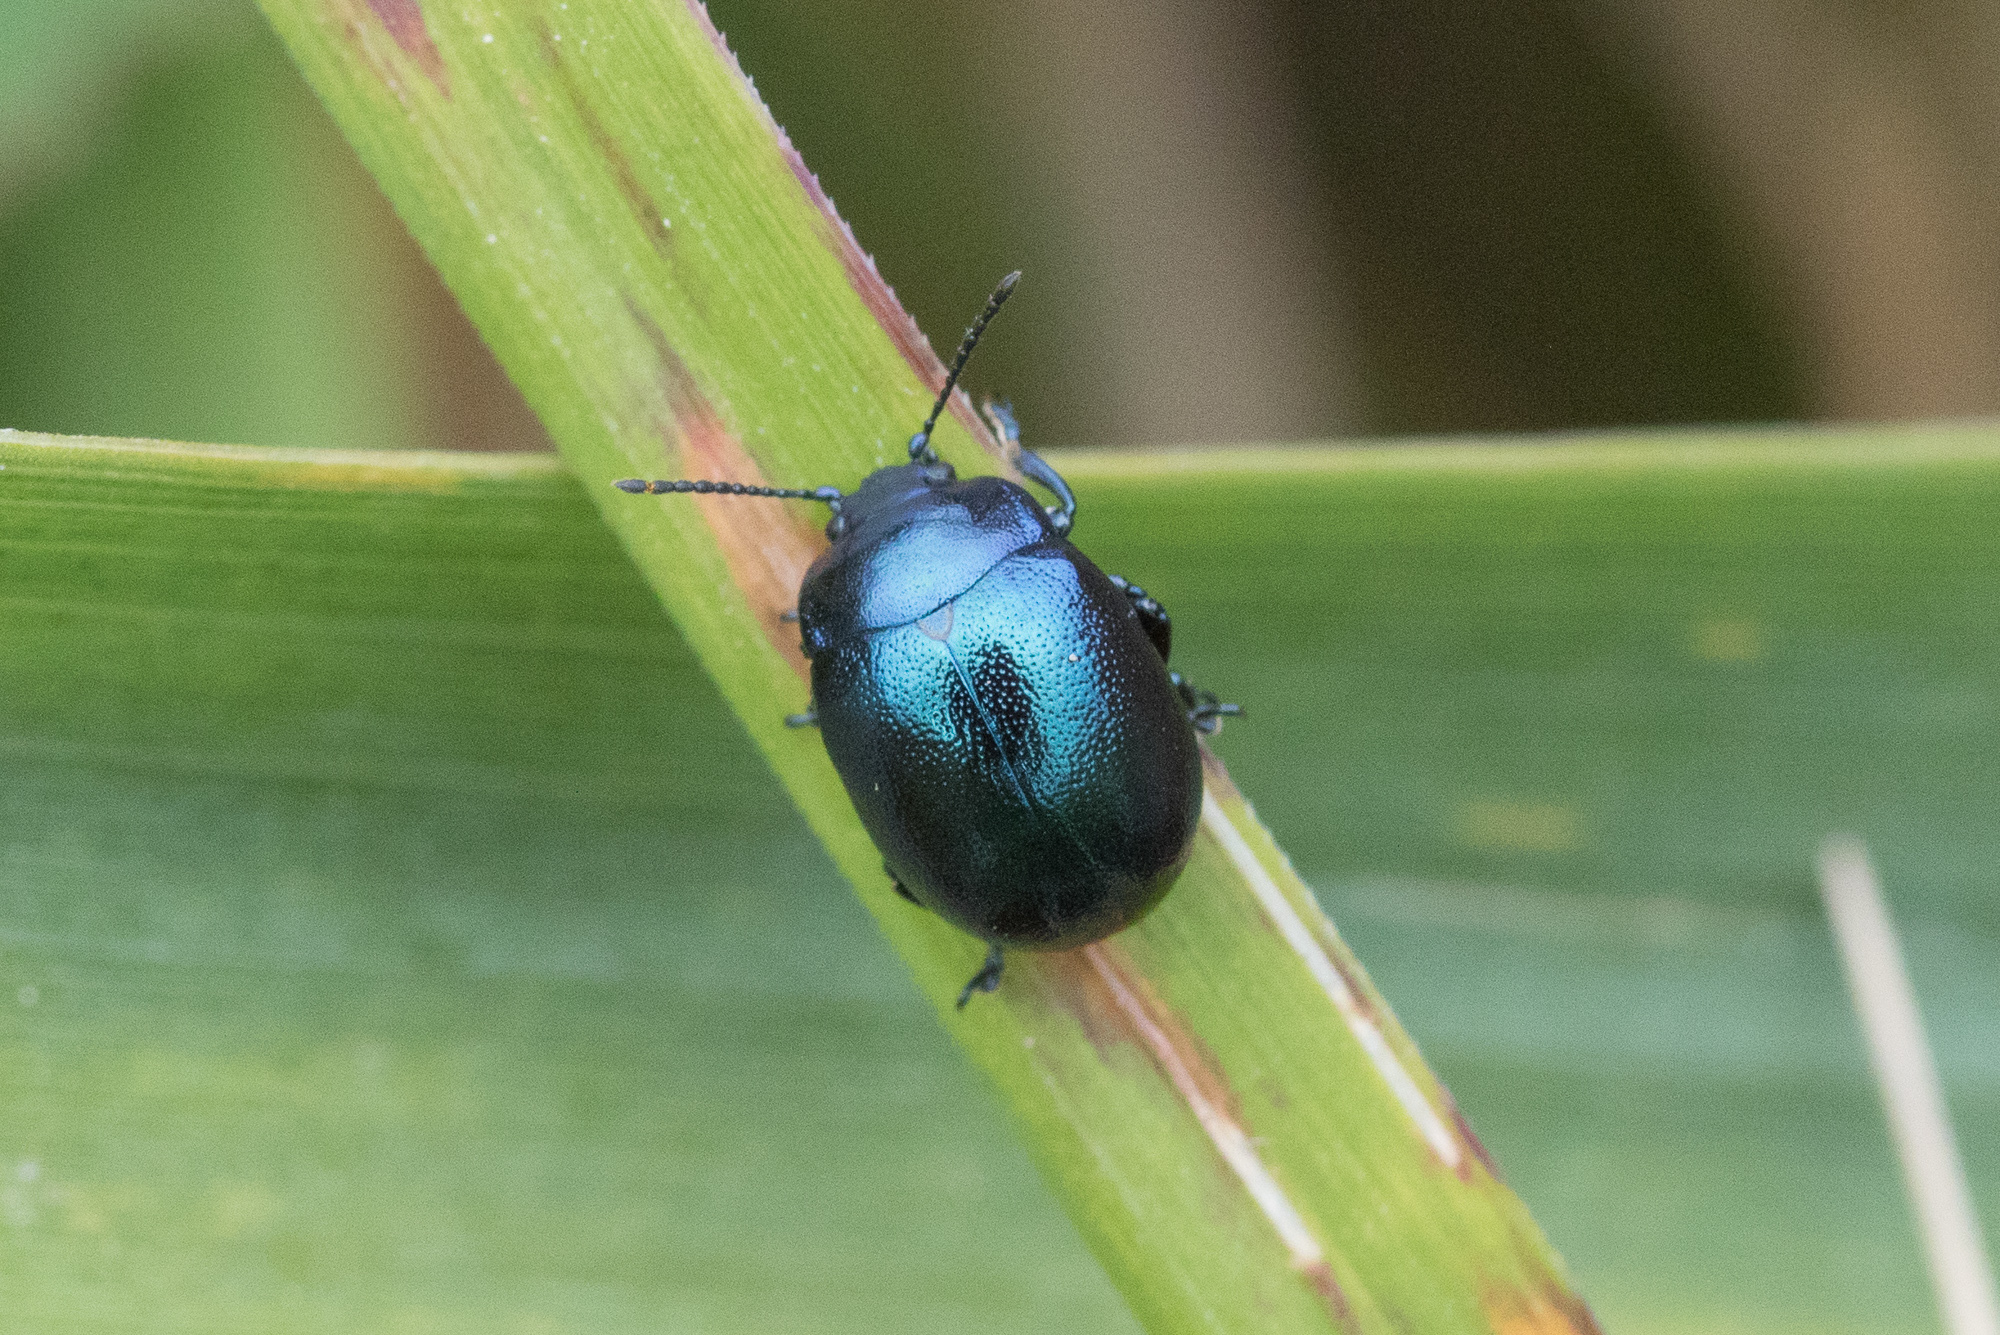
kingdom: Animalia
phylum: Arthropoda
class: Insecta
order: Coleoptera
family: Chrysomelidae
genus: Chrysolina
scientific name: Chrysolina varians
